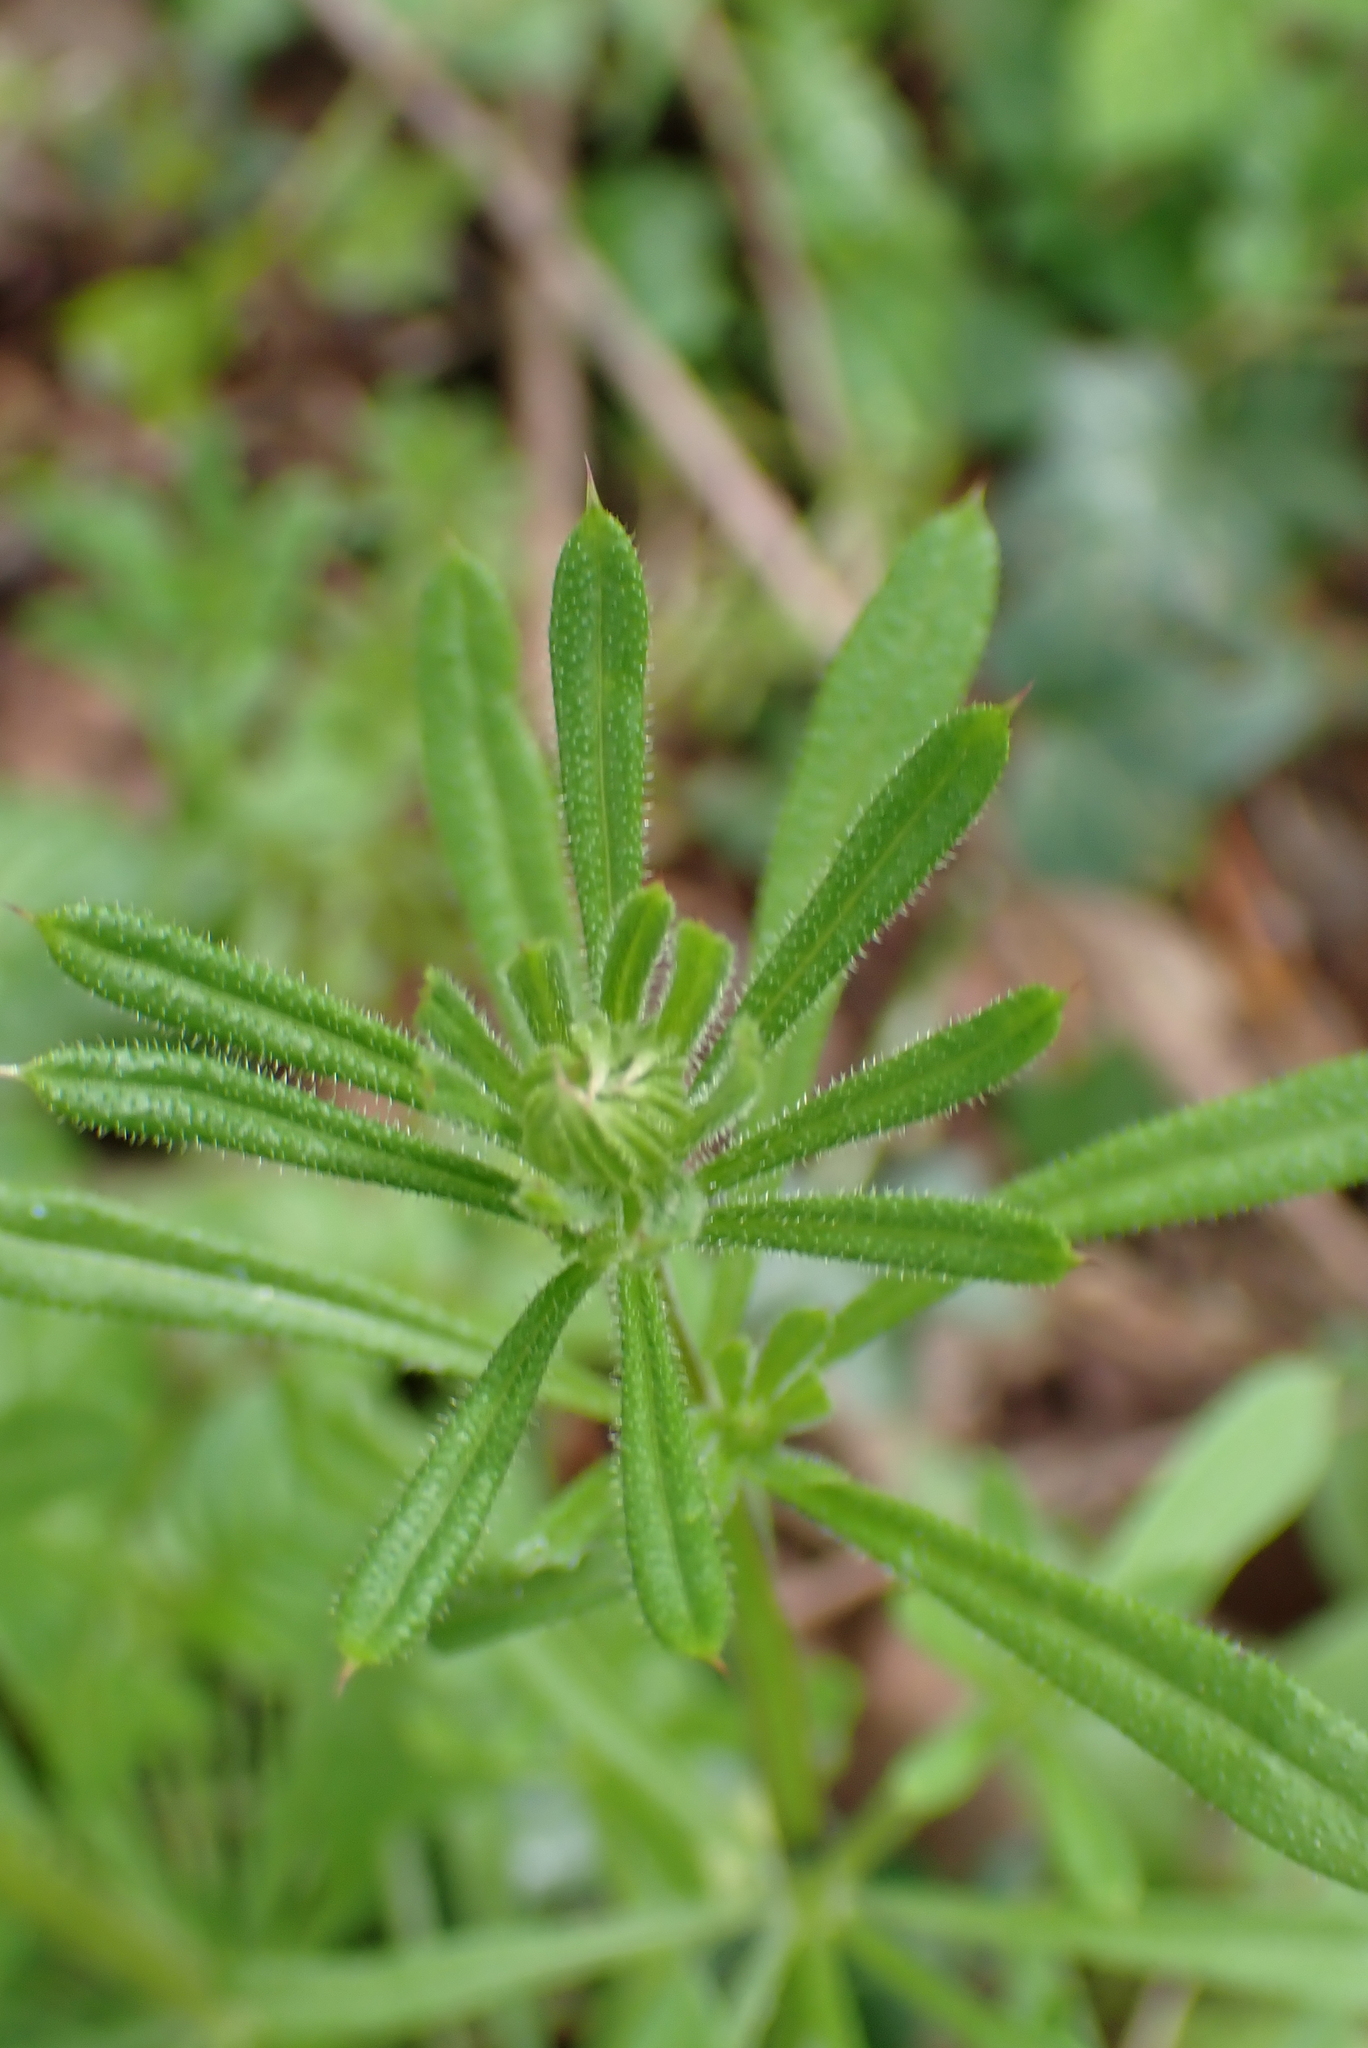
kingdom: Plantae
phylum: Tracheophyta
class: Magnoliopsida
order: Gentianales
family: Rubiaceae
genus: Galium
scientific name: Galium aparine
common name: Cleavers
